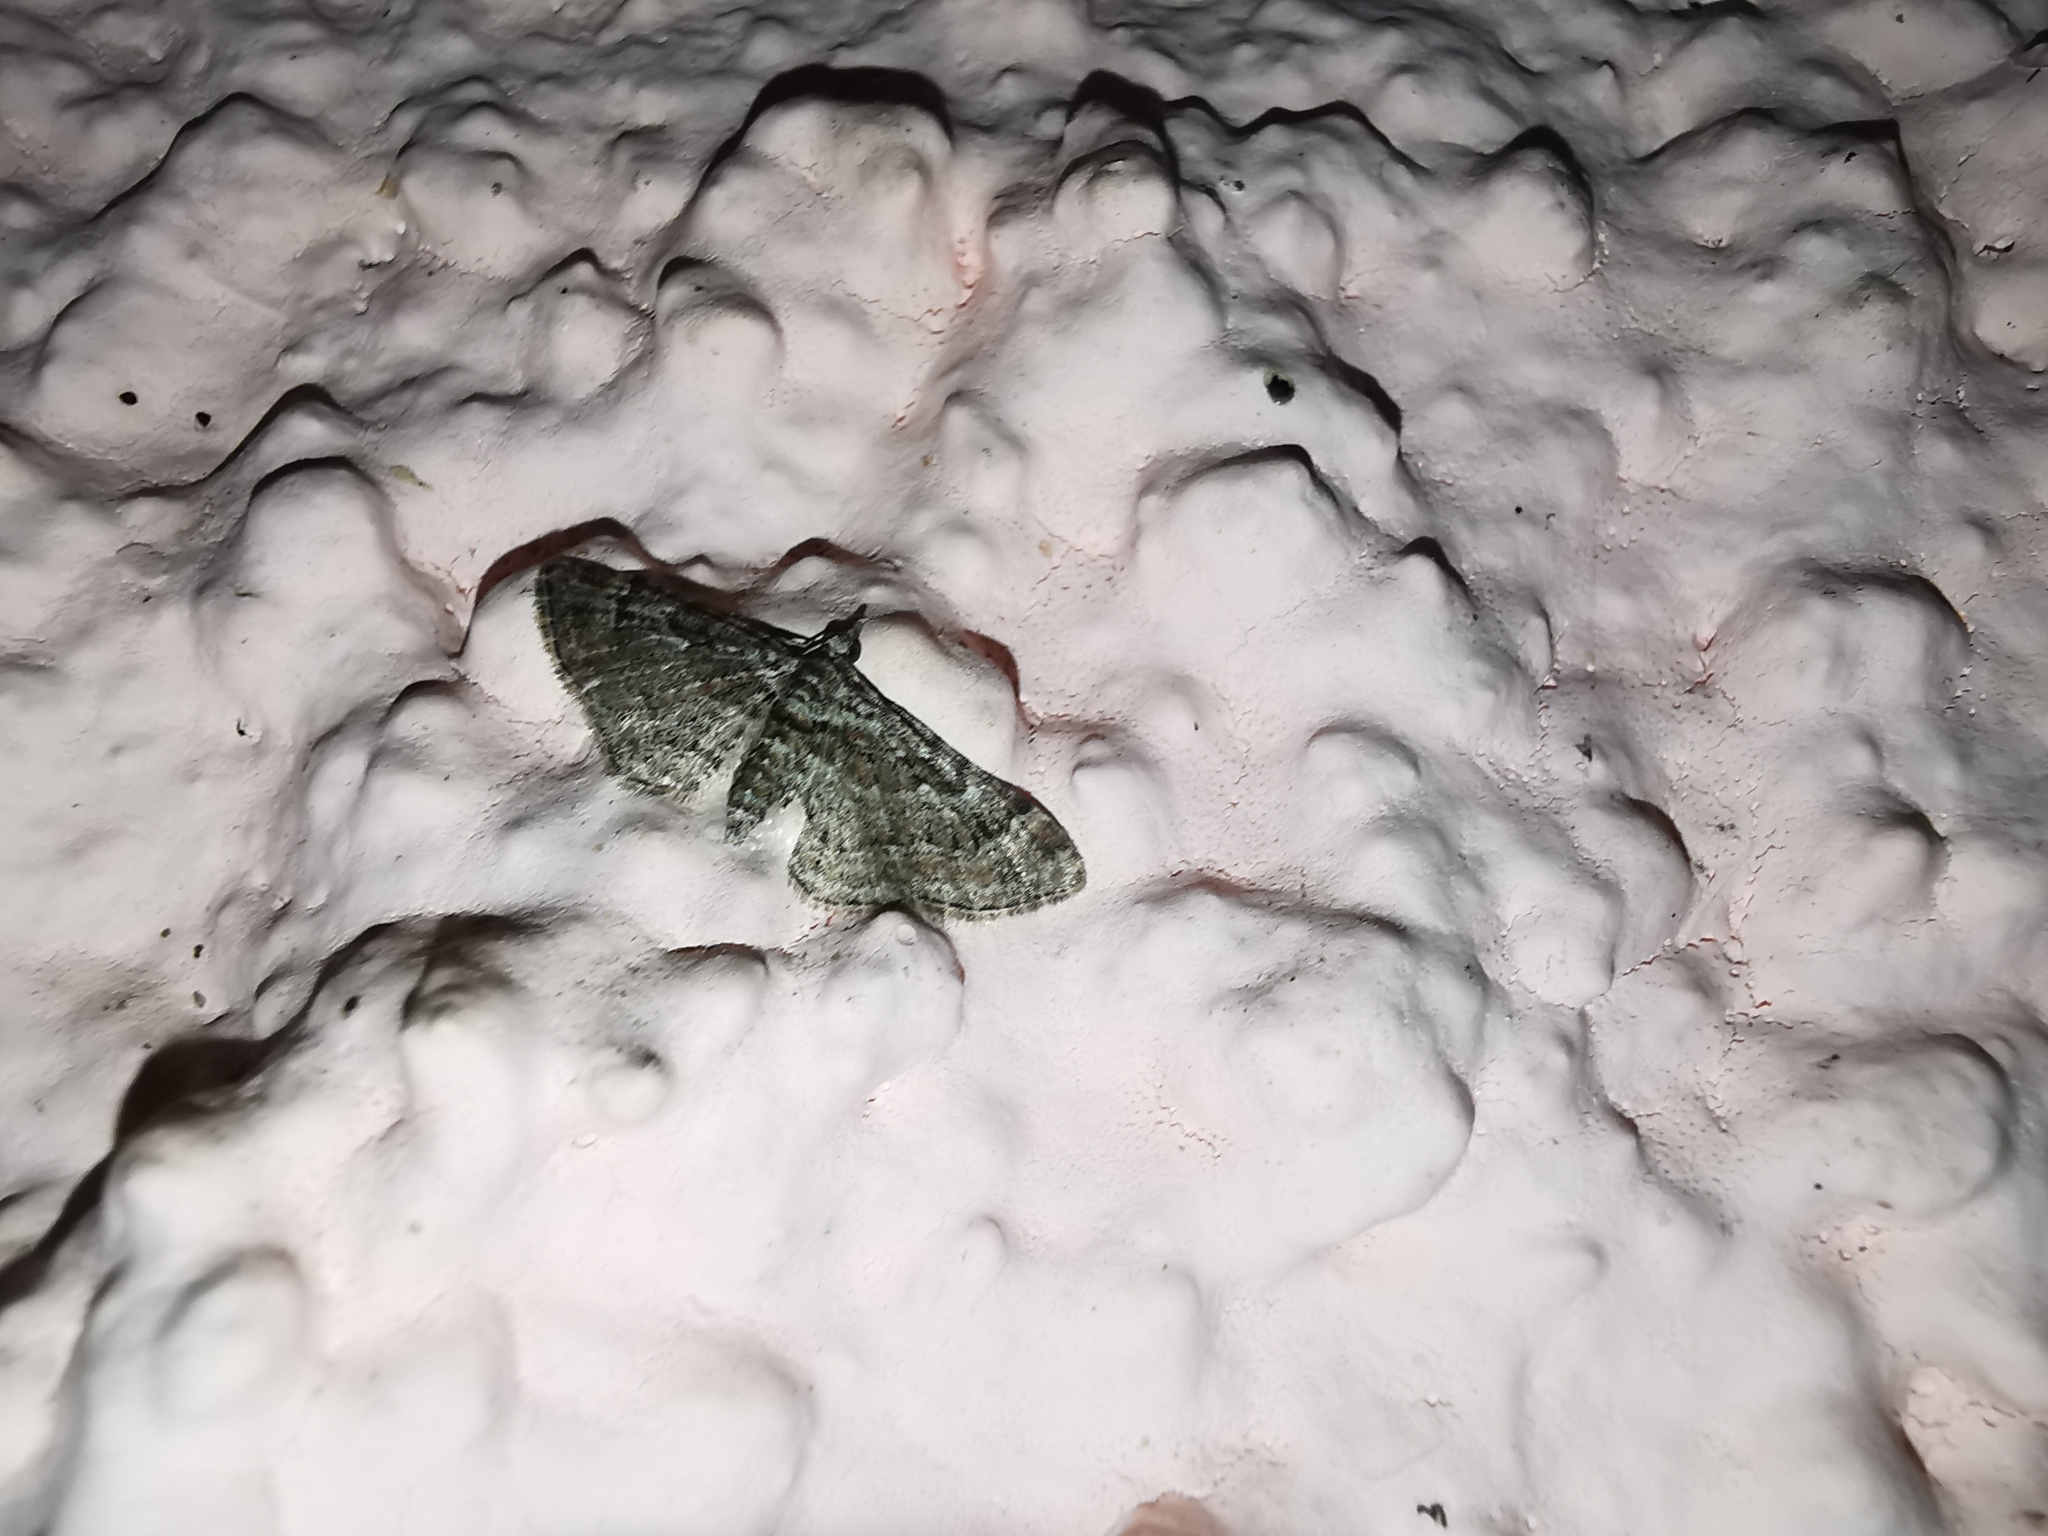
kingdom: Animalia
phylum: Arthropoda
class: Insecta
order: Lepidoptera
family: Geometridae
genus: Gymnoscelis
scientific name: Gymnoscelis rufifasciata
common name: Double-striped pug
